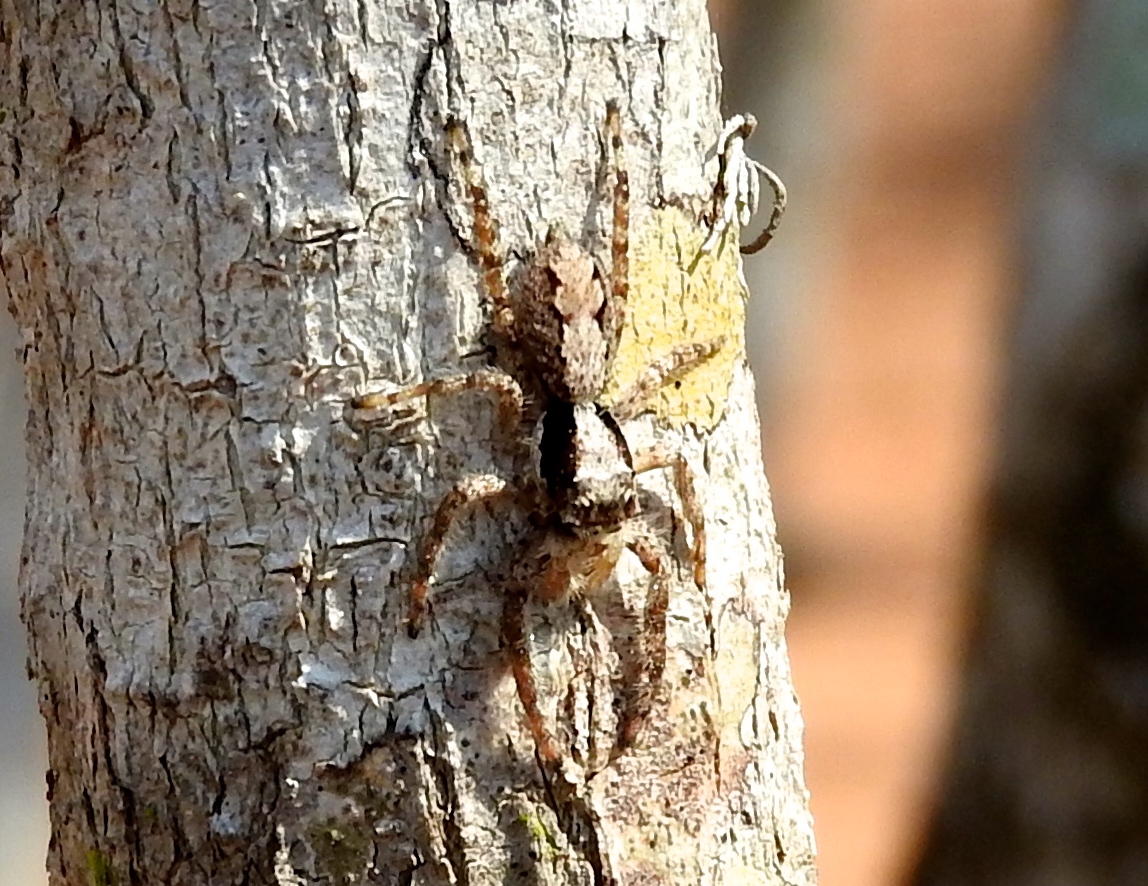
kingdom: Animalia
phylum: Arthropoda
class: Arachnida
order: Araneae
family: Salticidae
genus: Balmaceda
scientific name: Balmaceda
